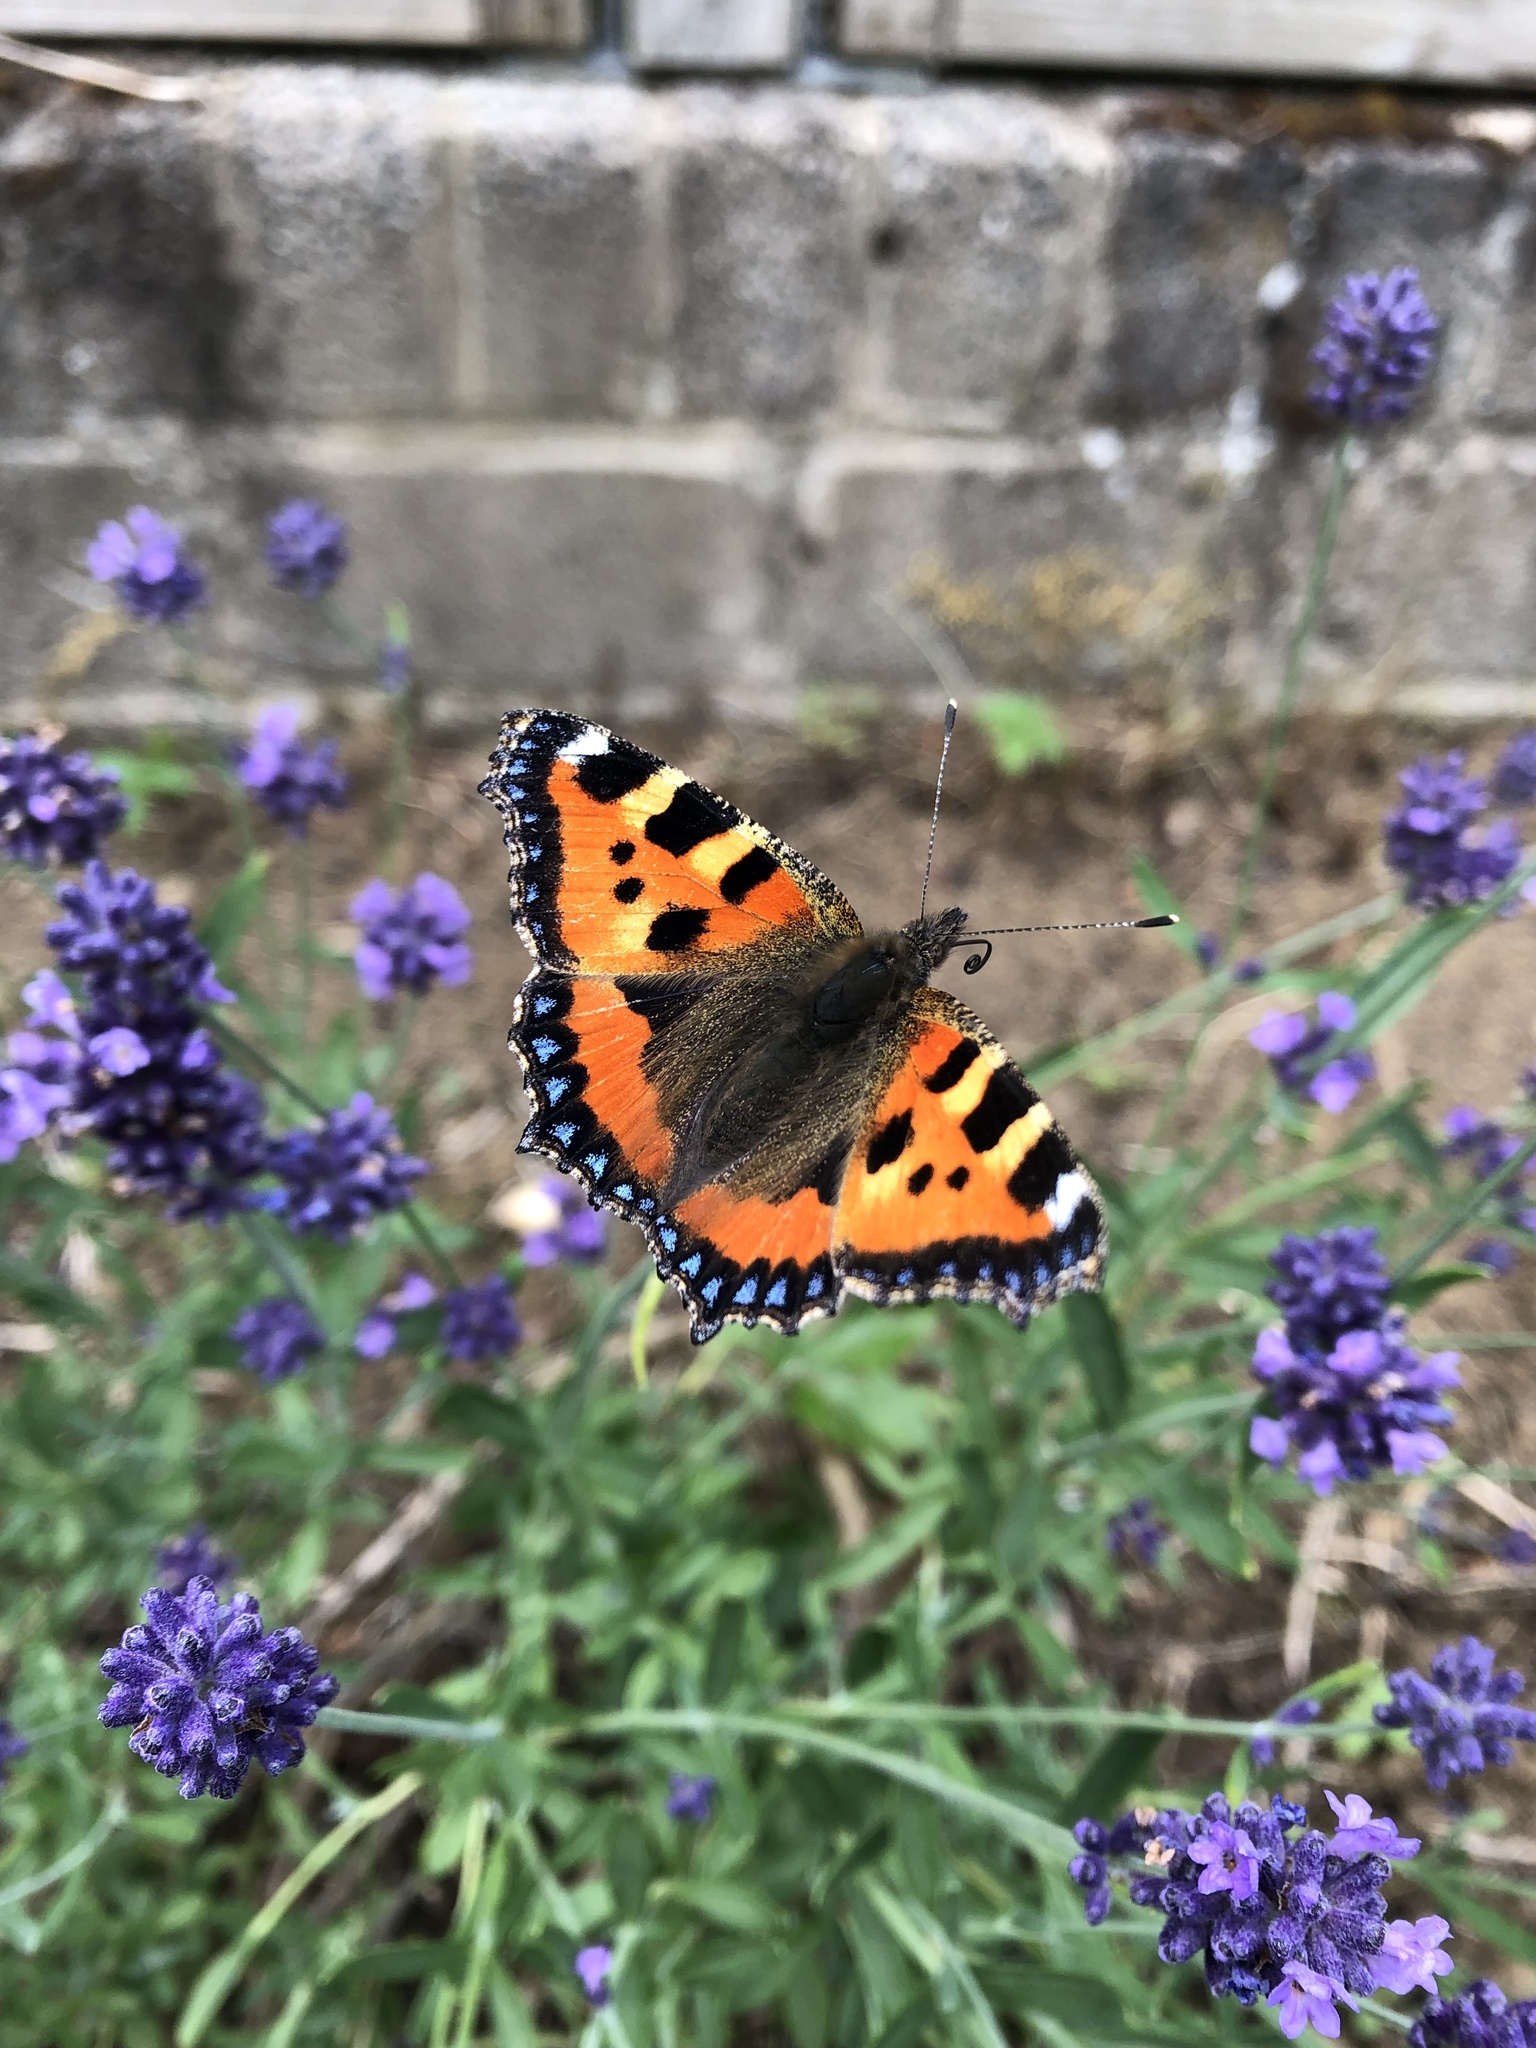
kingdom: Animalia
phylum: Arthropoda
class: Insecta
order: Lepidoptera
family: Nymphalidae
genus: Aglais
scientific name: Aglais urticae
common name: Small tortoiseshell
